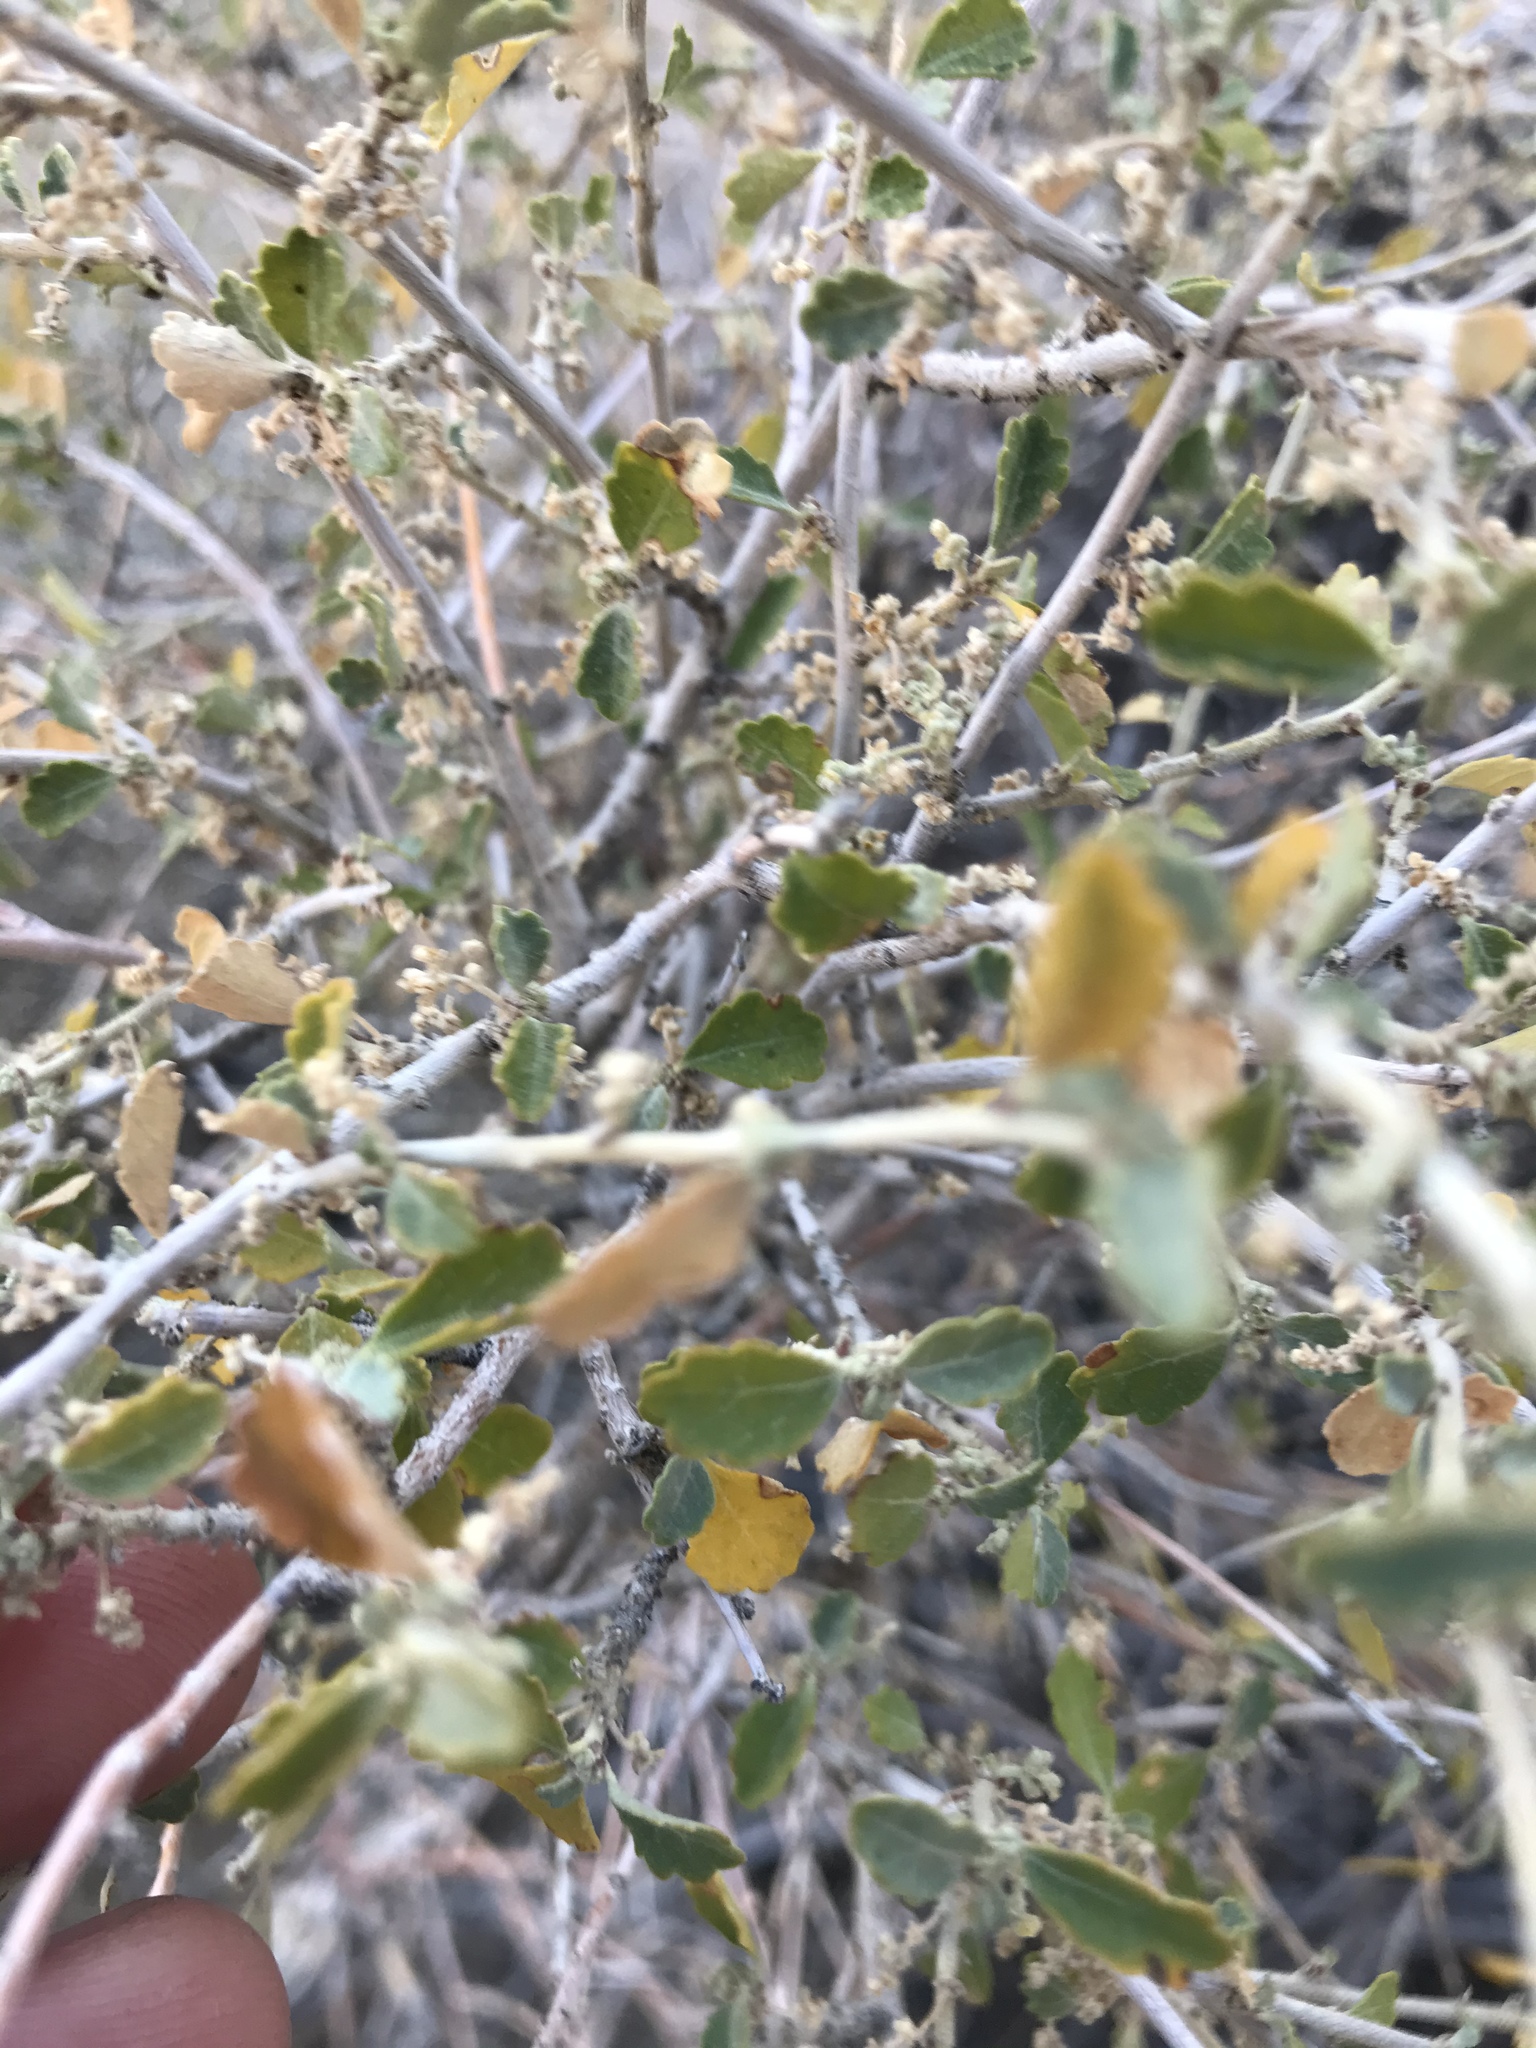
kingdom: Plantae
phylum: Tracheophyta
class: Magnoliopsida
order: Malpighiales
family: Euphorbiaceae
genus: Bernardia
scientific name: Bernardia incana
